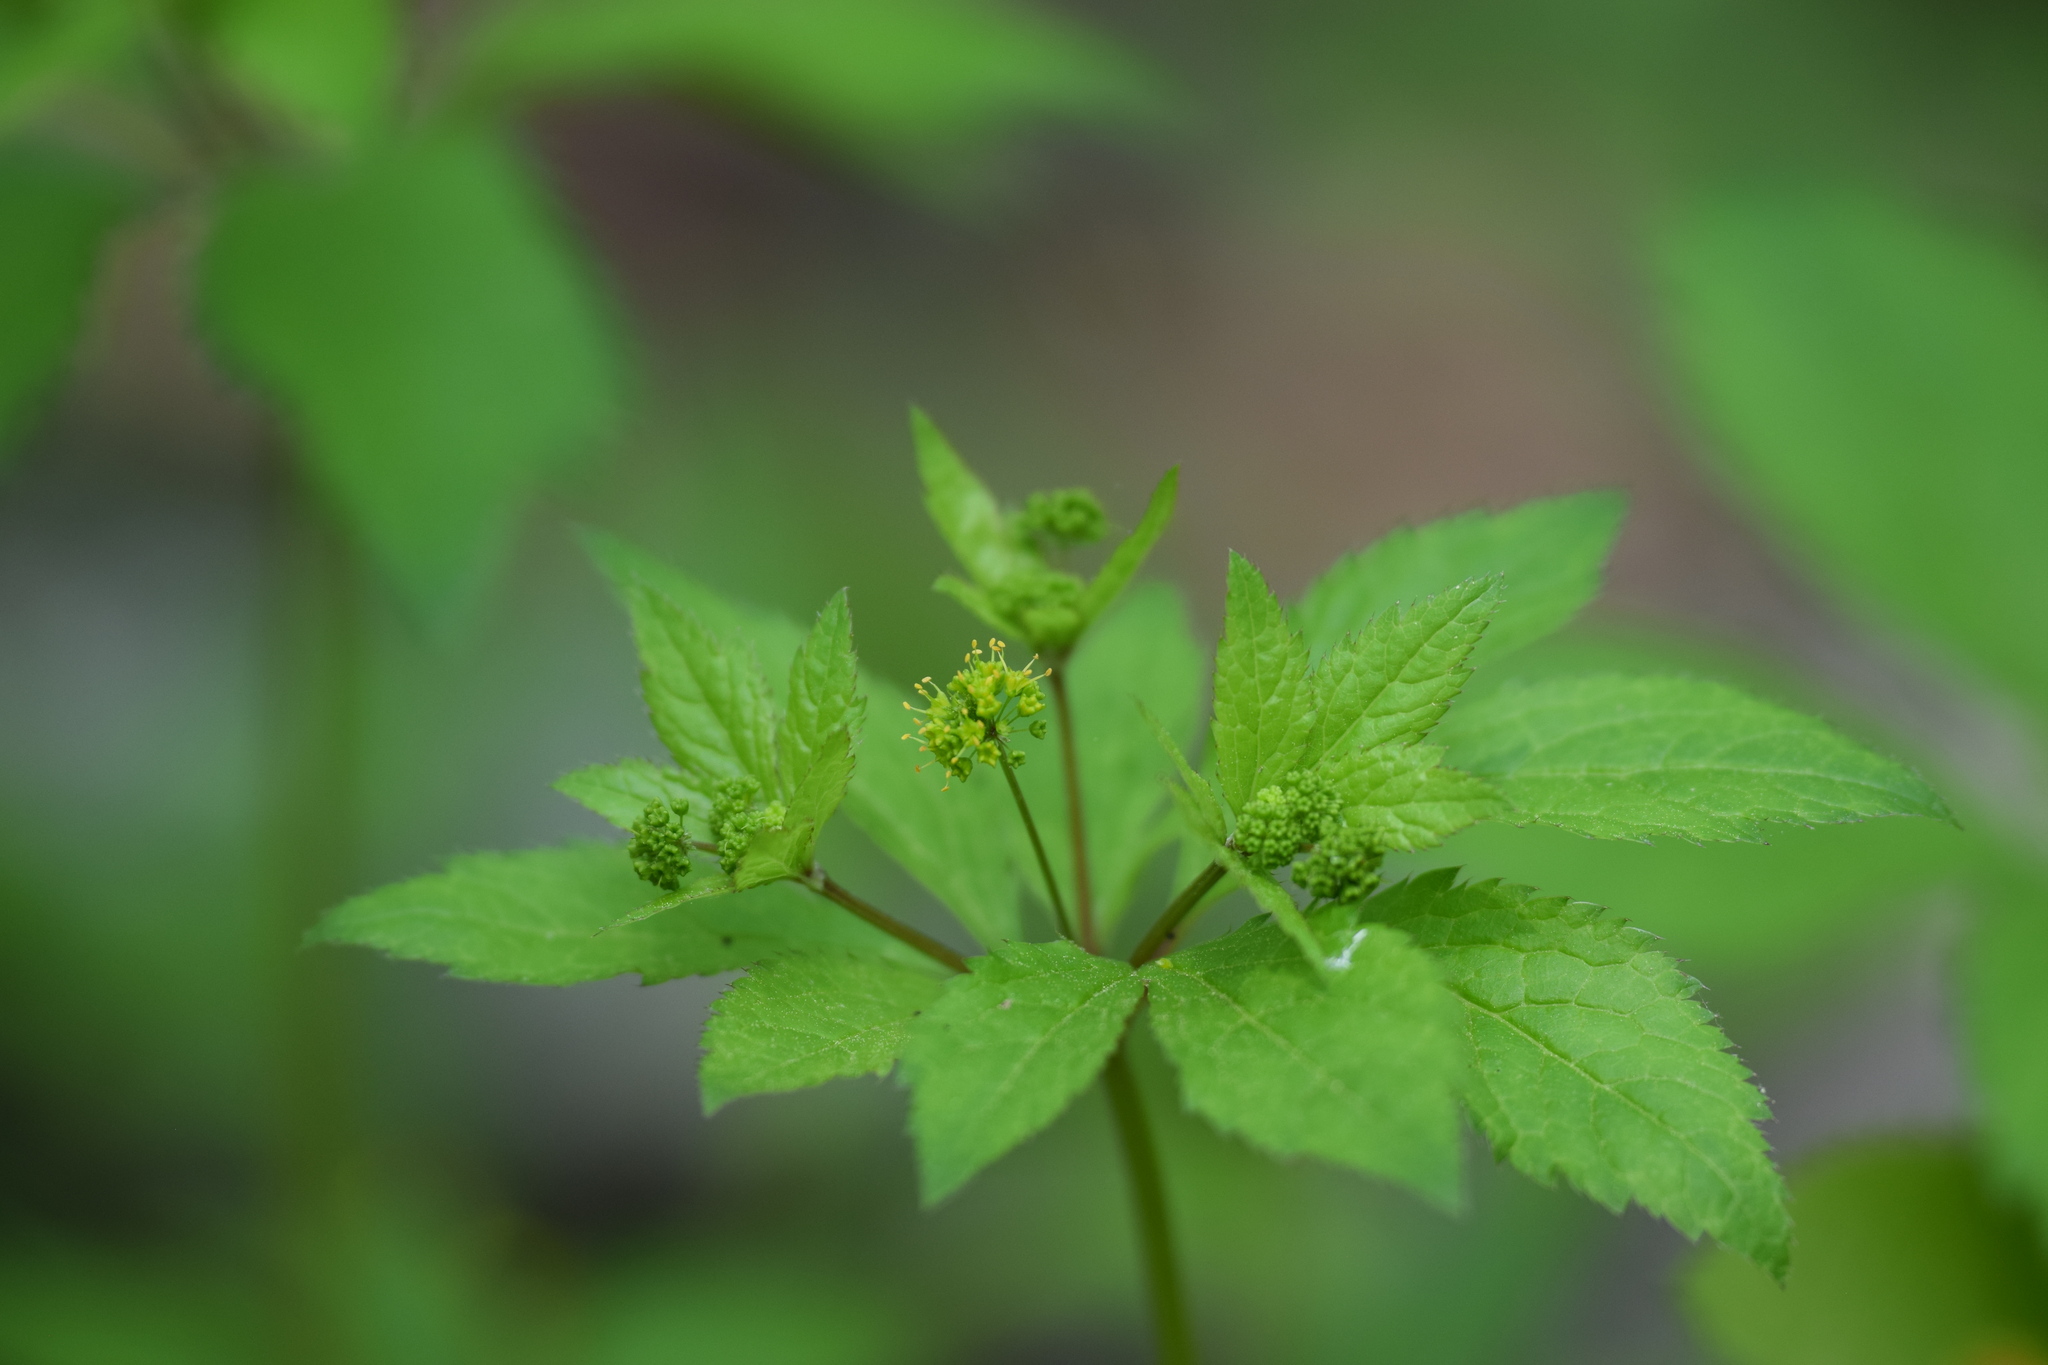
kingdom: Plantae
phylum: Tracheophyta
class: Magnoliopsida
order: Apiales
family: Apiaceae
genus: Sanicula
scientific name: Sanicula odorata
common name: Cluster sanicle
